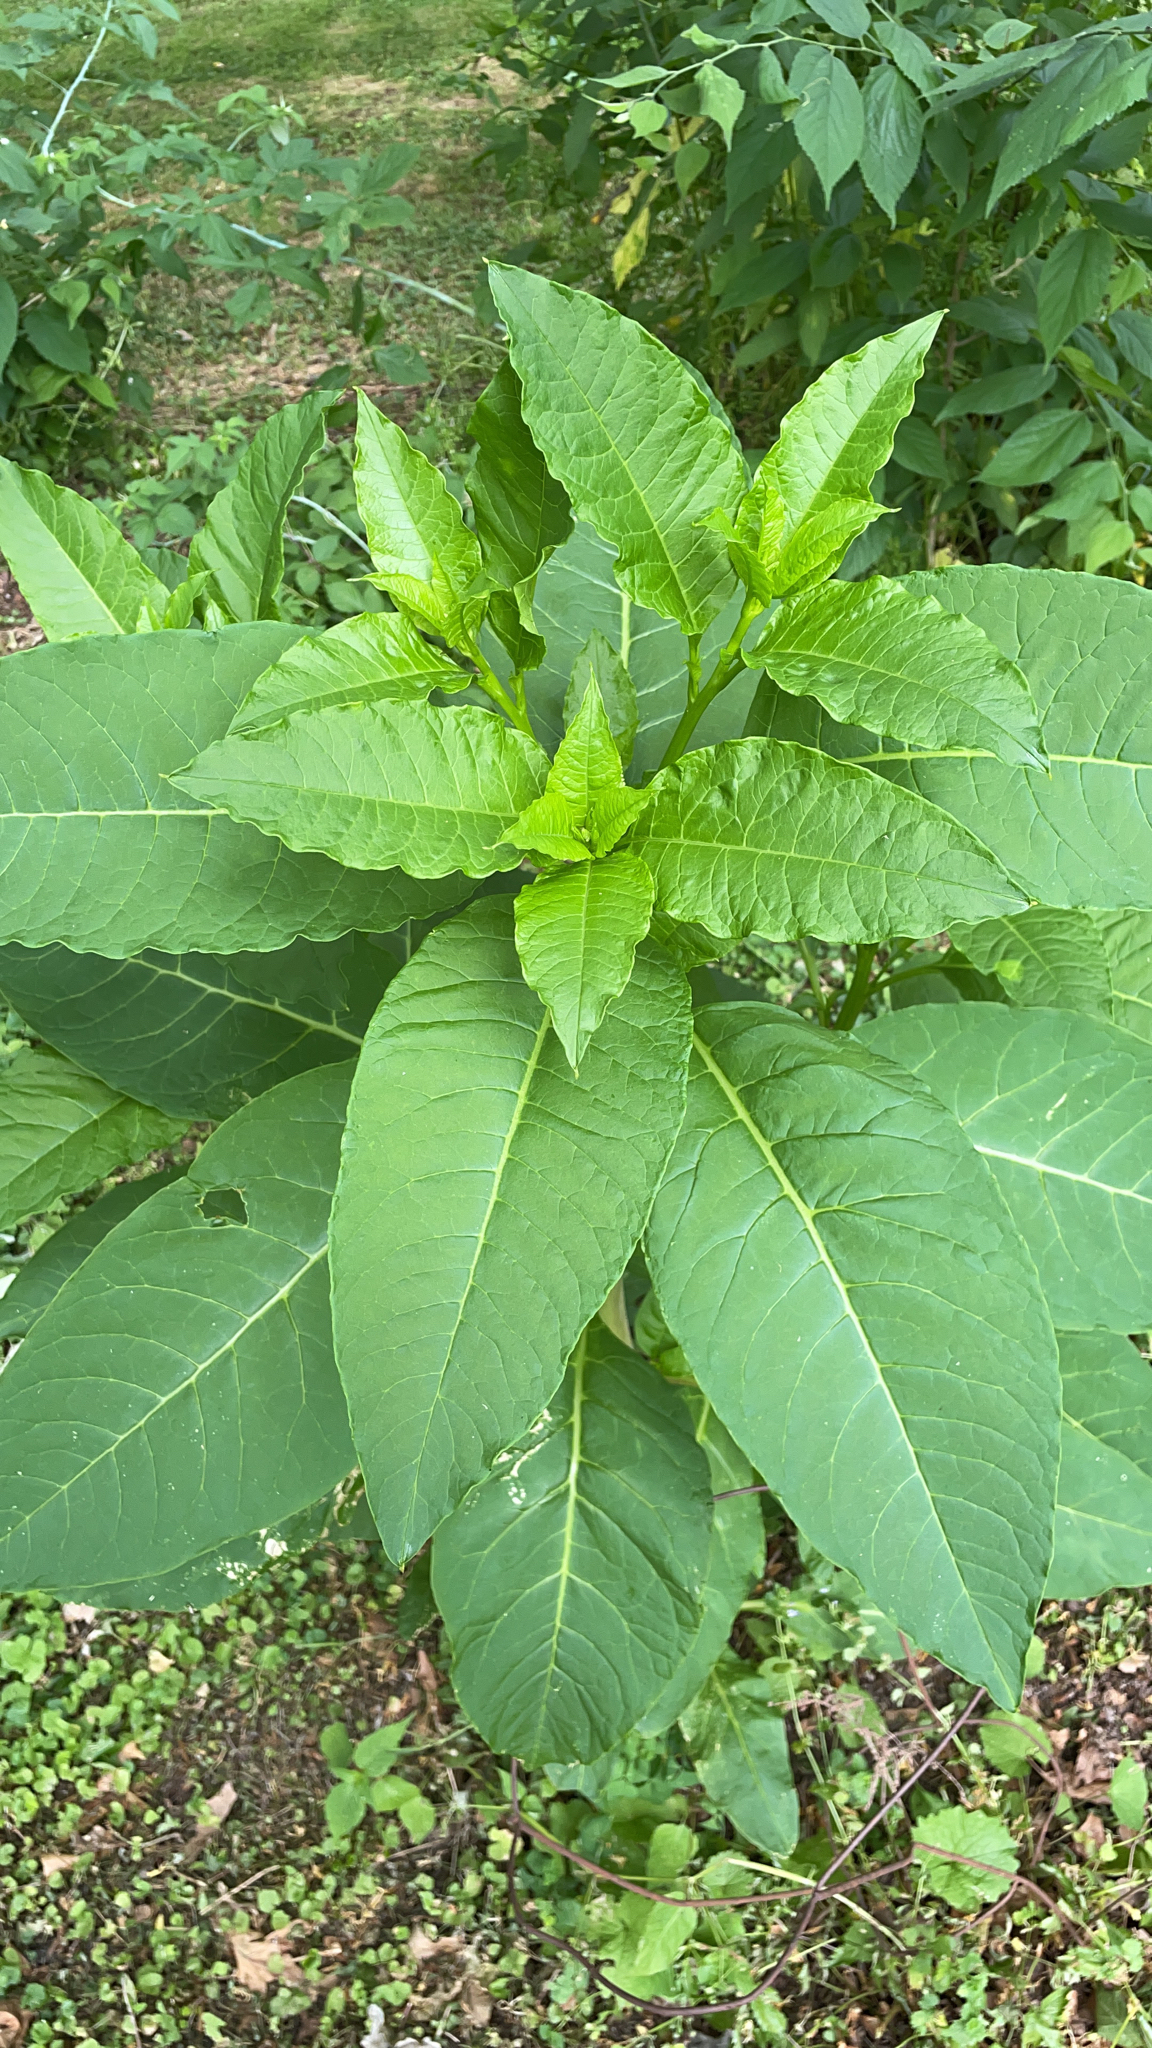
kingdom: Plantae
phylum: Tracheophyta
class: Magnoliopsida
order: Caryophyllales
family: Phytolaccaceae
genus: Phytolacca
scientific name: Phytolacca americana
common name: American pokeweed
